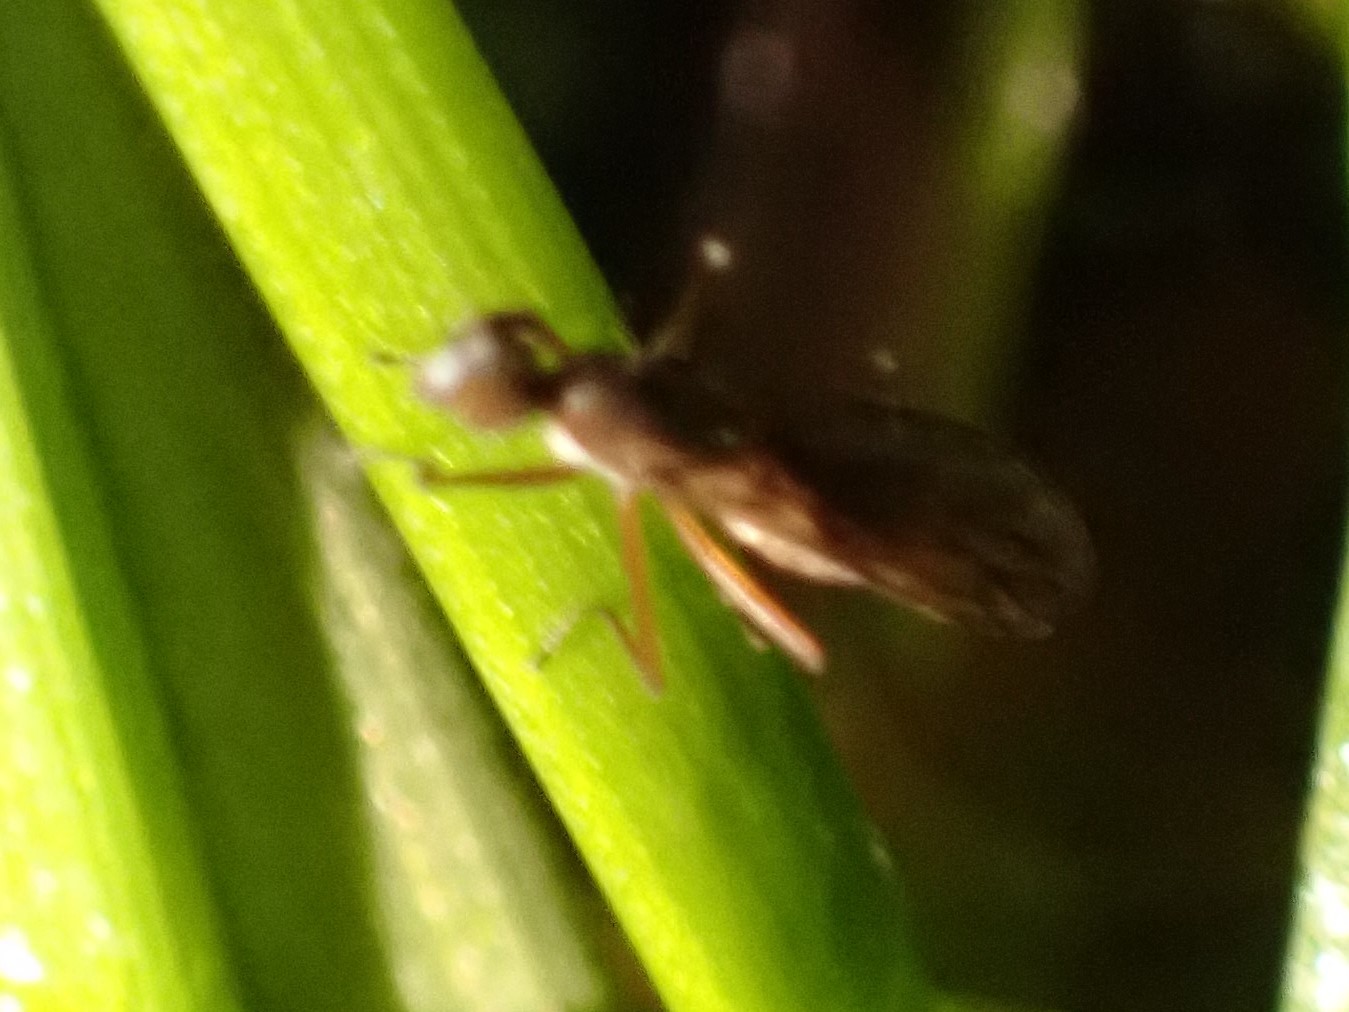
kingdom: Animalia
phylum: Arthropoda
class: Insecta
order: Diptera
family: Empididae
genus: Clinocera
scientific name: Clinocera lineata
